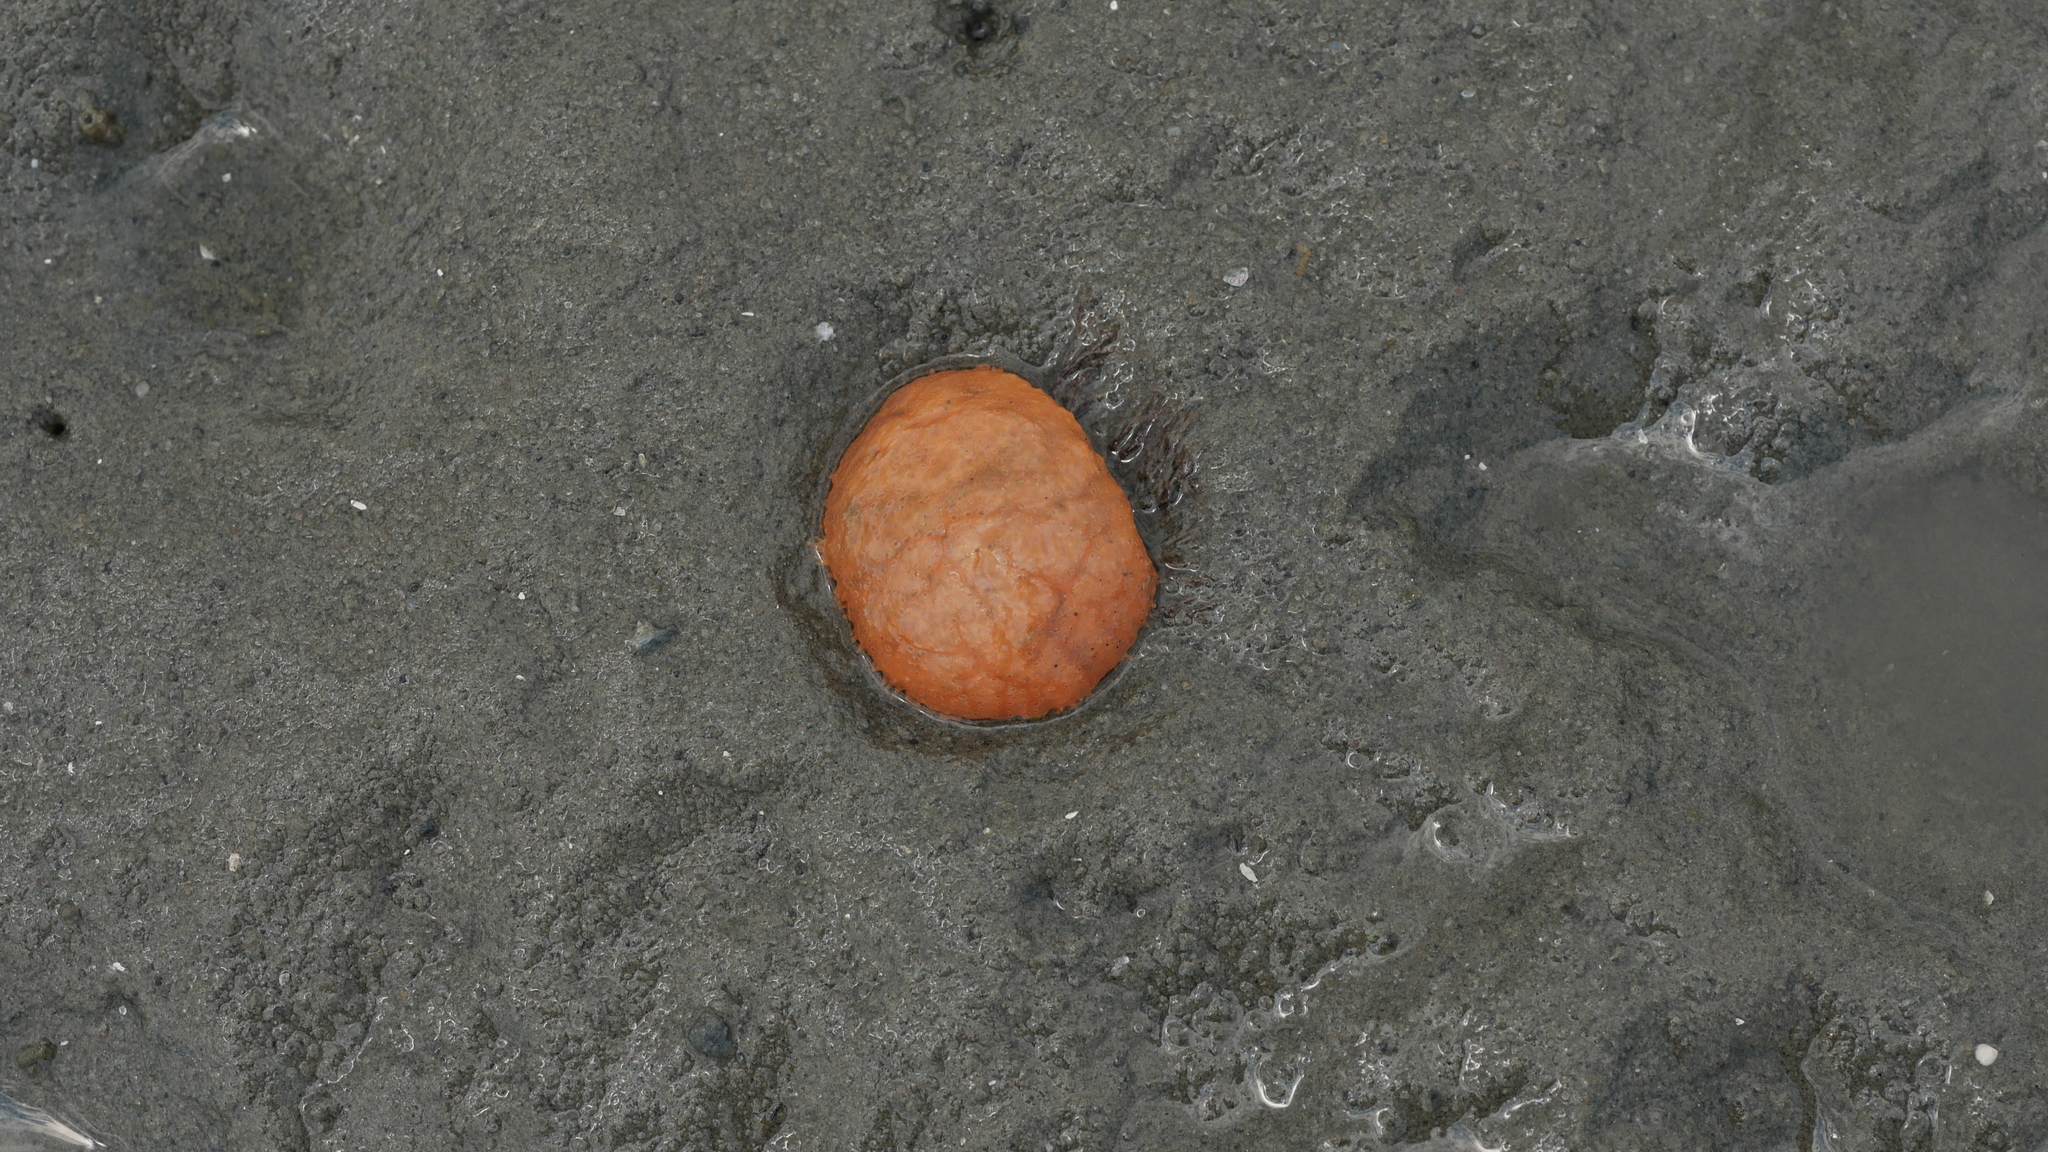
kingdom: Animalia
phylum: Chordata
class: Ascidiacea
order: Aplousobranchia
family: Polyclinidae
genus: Aplidium
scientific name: Aplidium stellatum
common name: Atlantic sea pork
